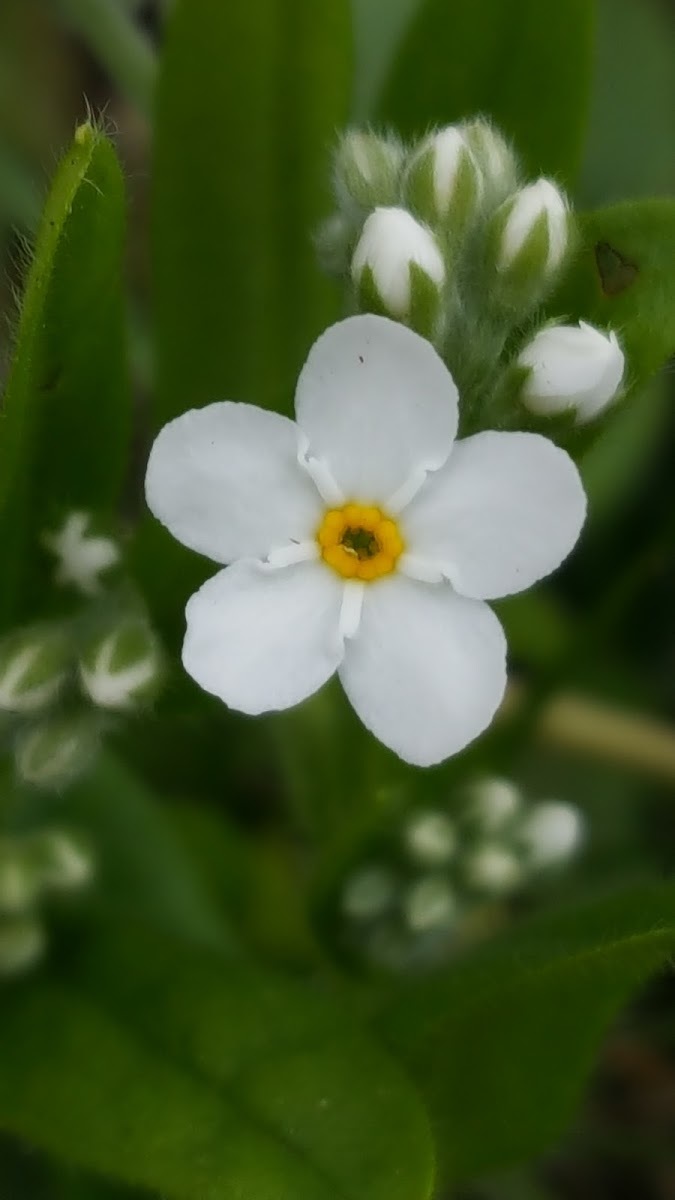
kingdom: Plantae
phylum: Tracheophyta
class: Magnoliopsida
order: Boraginales
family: Boraginaceae
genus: Myosotis
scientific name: Myosotis sylvatica
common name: Wood forget-me-not
